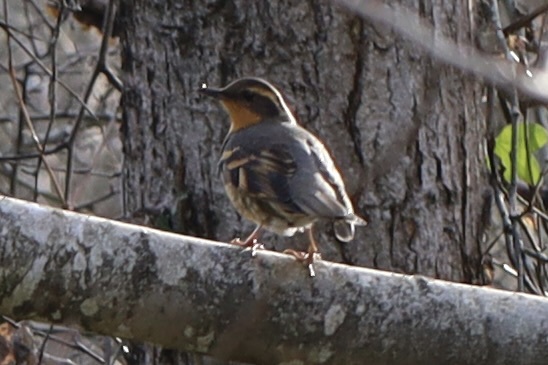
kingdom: Animalia
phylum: Chordata
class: Aves
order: Passeriformes
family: Turdidae
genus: Ixoreus
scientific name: Ixoreus naevius
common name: Varied thrush
